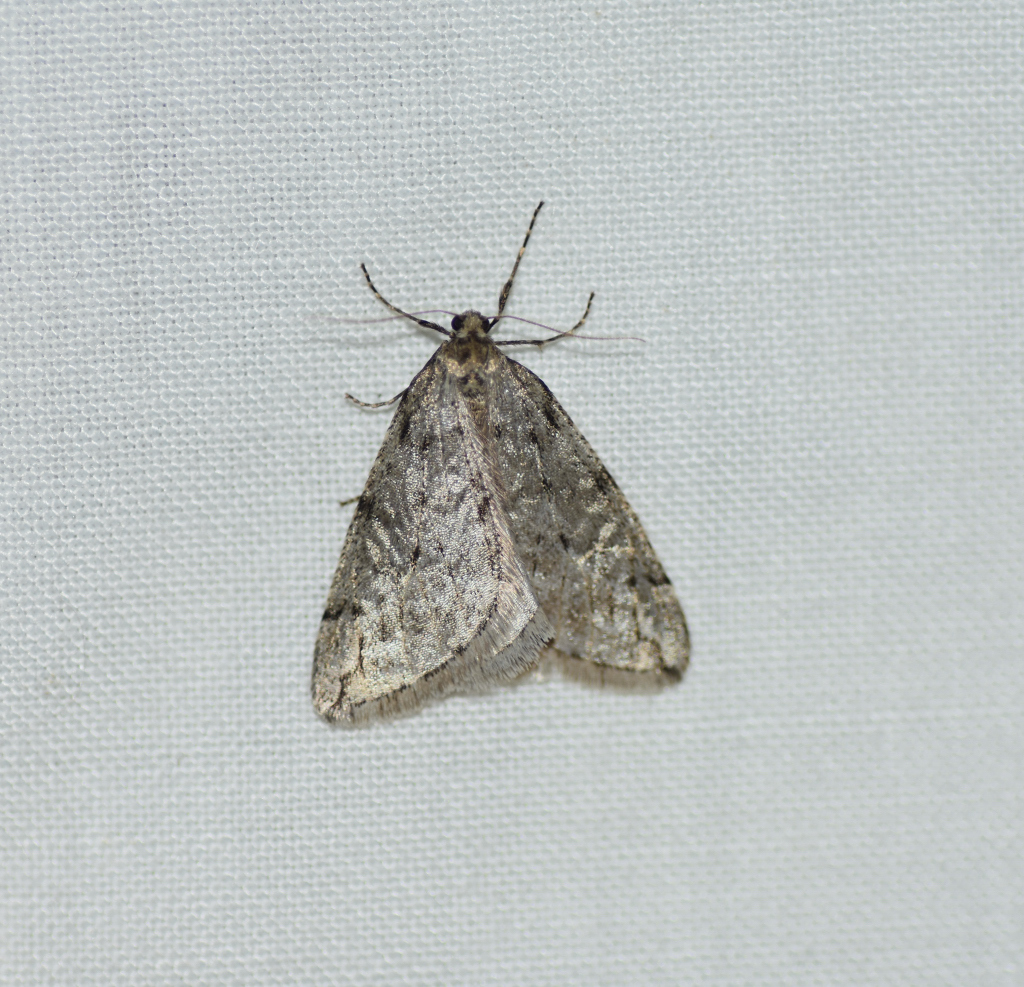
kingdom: Animalia
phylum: Arthropoda
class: Insecta
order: Lepidoptera
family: Geometridae
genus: Paleacrita
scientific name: Paleacrita vernata
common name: Spring cankerworm
